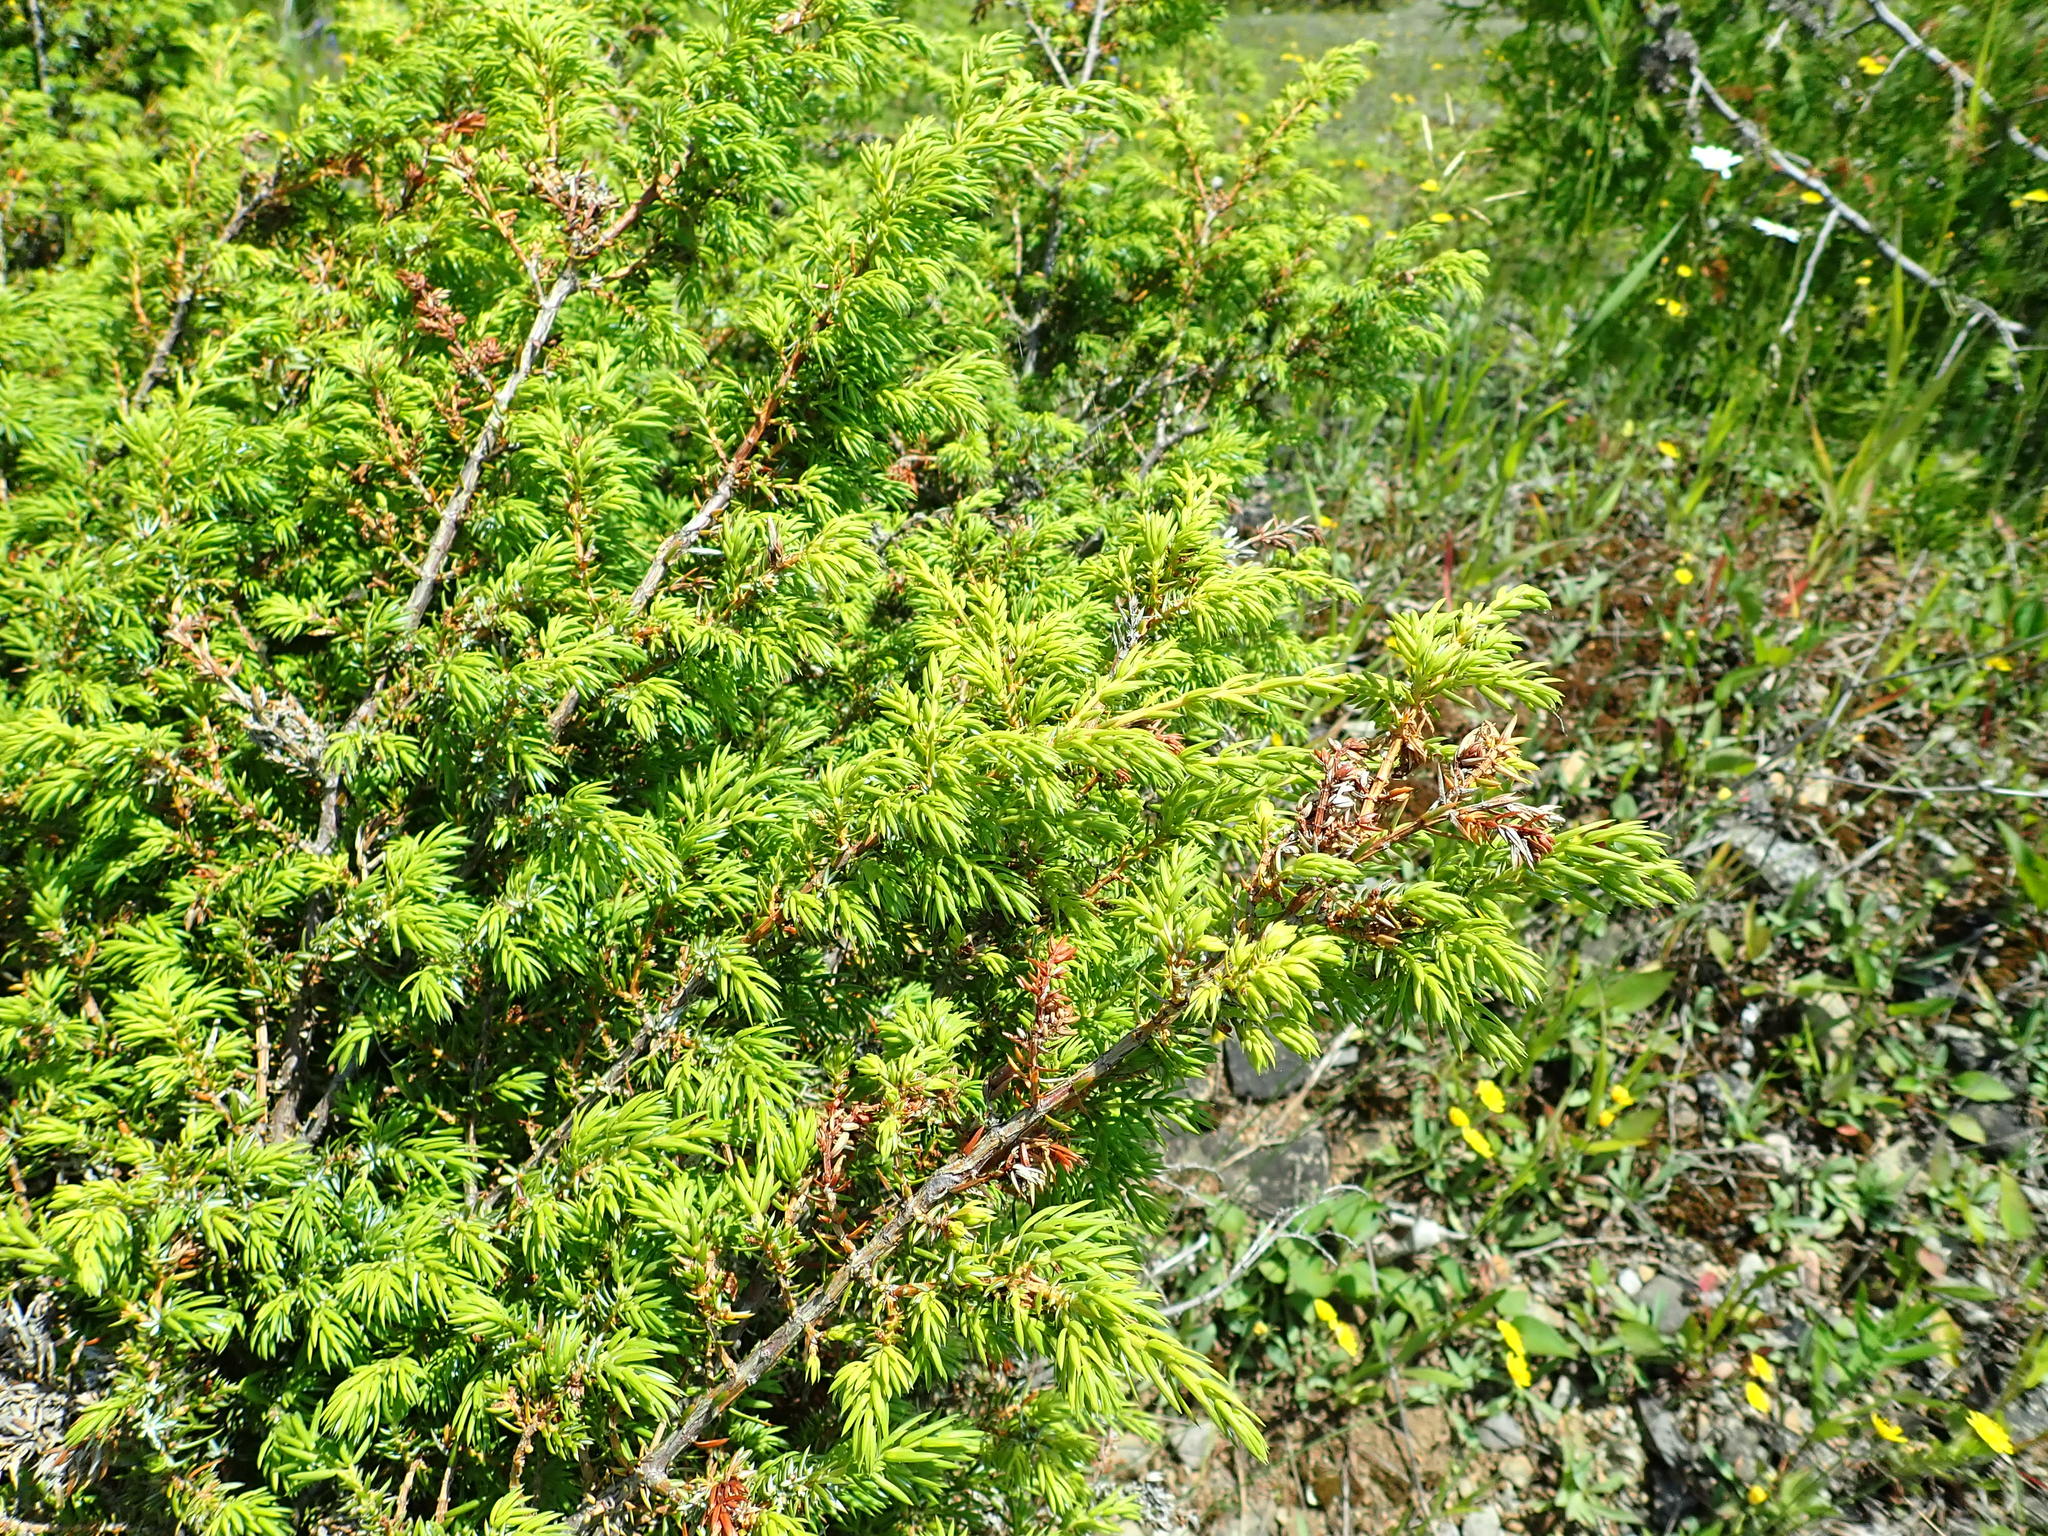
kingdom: Plantae
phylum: Tracheophyta
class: Pinopsida
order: Pinales
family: Cupressaceae
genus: Juniperus
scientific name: Juniperus communis
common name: Common juniper
